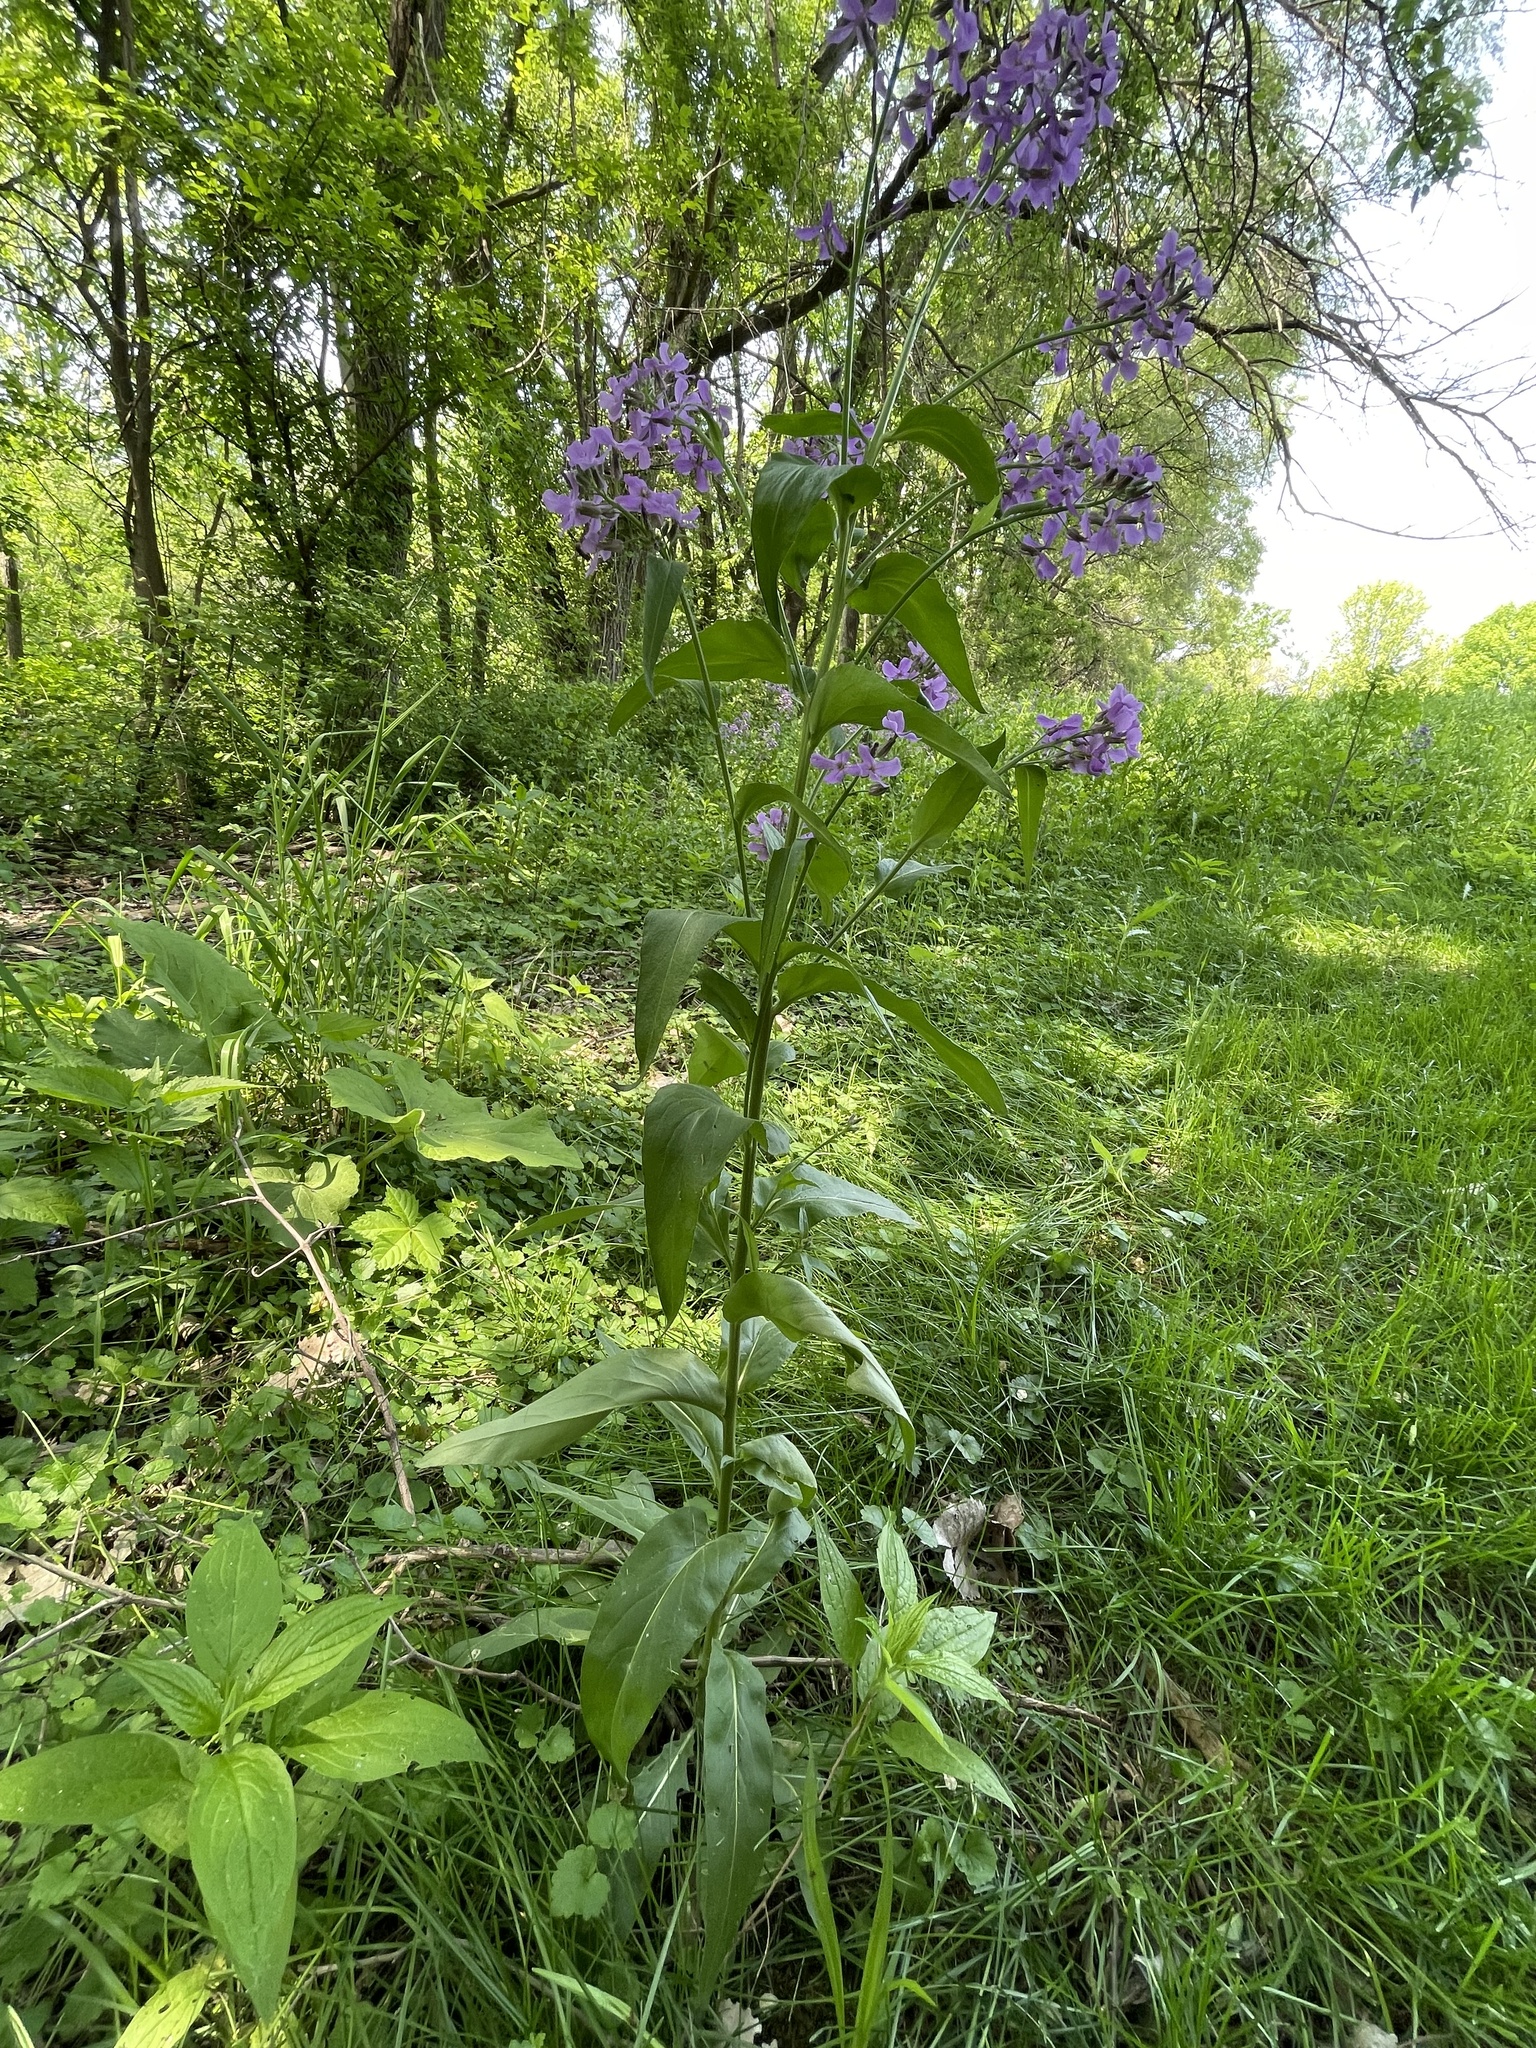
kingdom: Plantae
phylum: Tracheophyta
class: Magnoliopsida
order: Brassicales
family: Brassicaceae
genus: Hesperis
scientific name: Hesperis matronalis
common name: Dame's-violet
